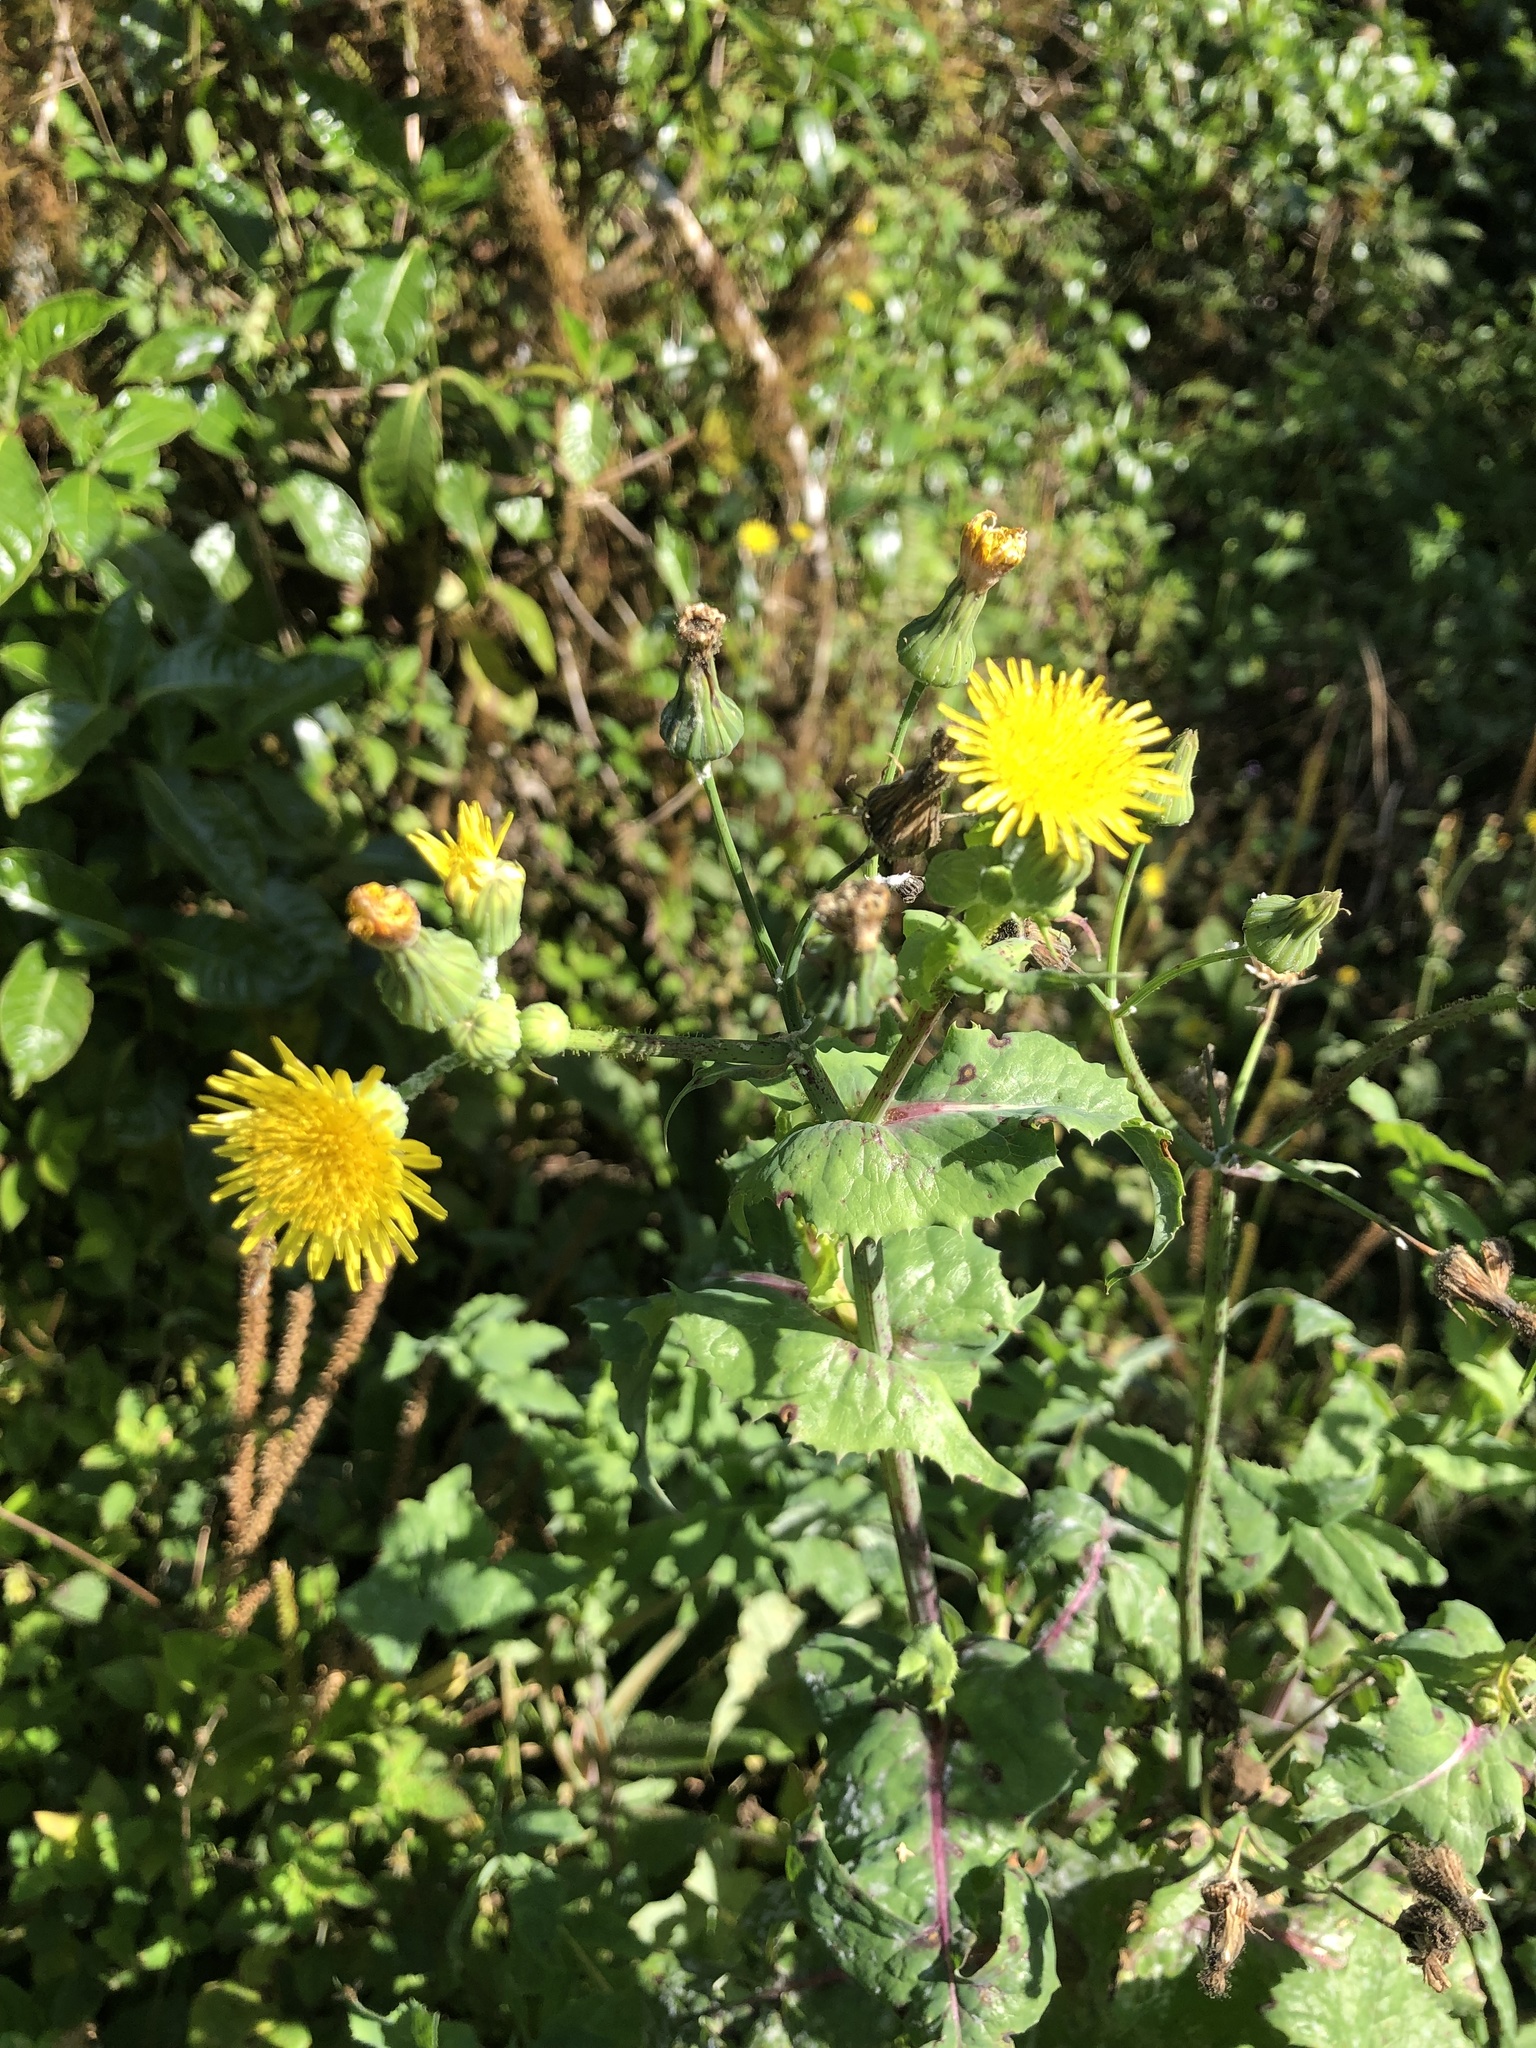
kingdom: Plantae
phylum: Tracheophyta
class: Magnoliopsida
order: Asterales
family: Asteraceae
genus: Sonchus
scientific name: Sonchus oleraceus
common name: Common sowthistle
